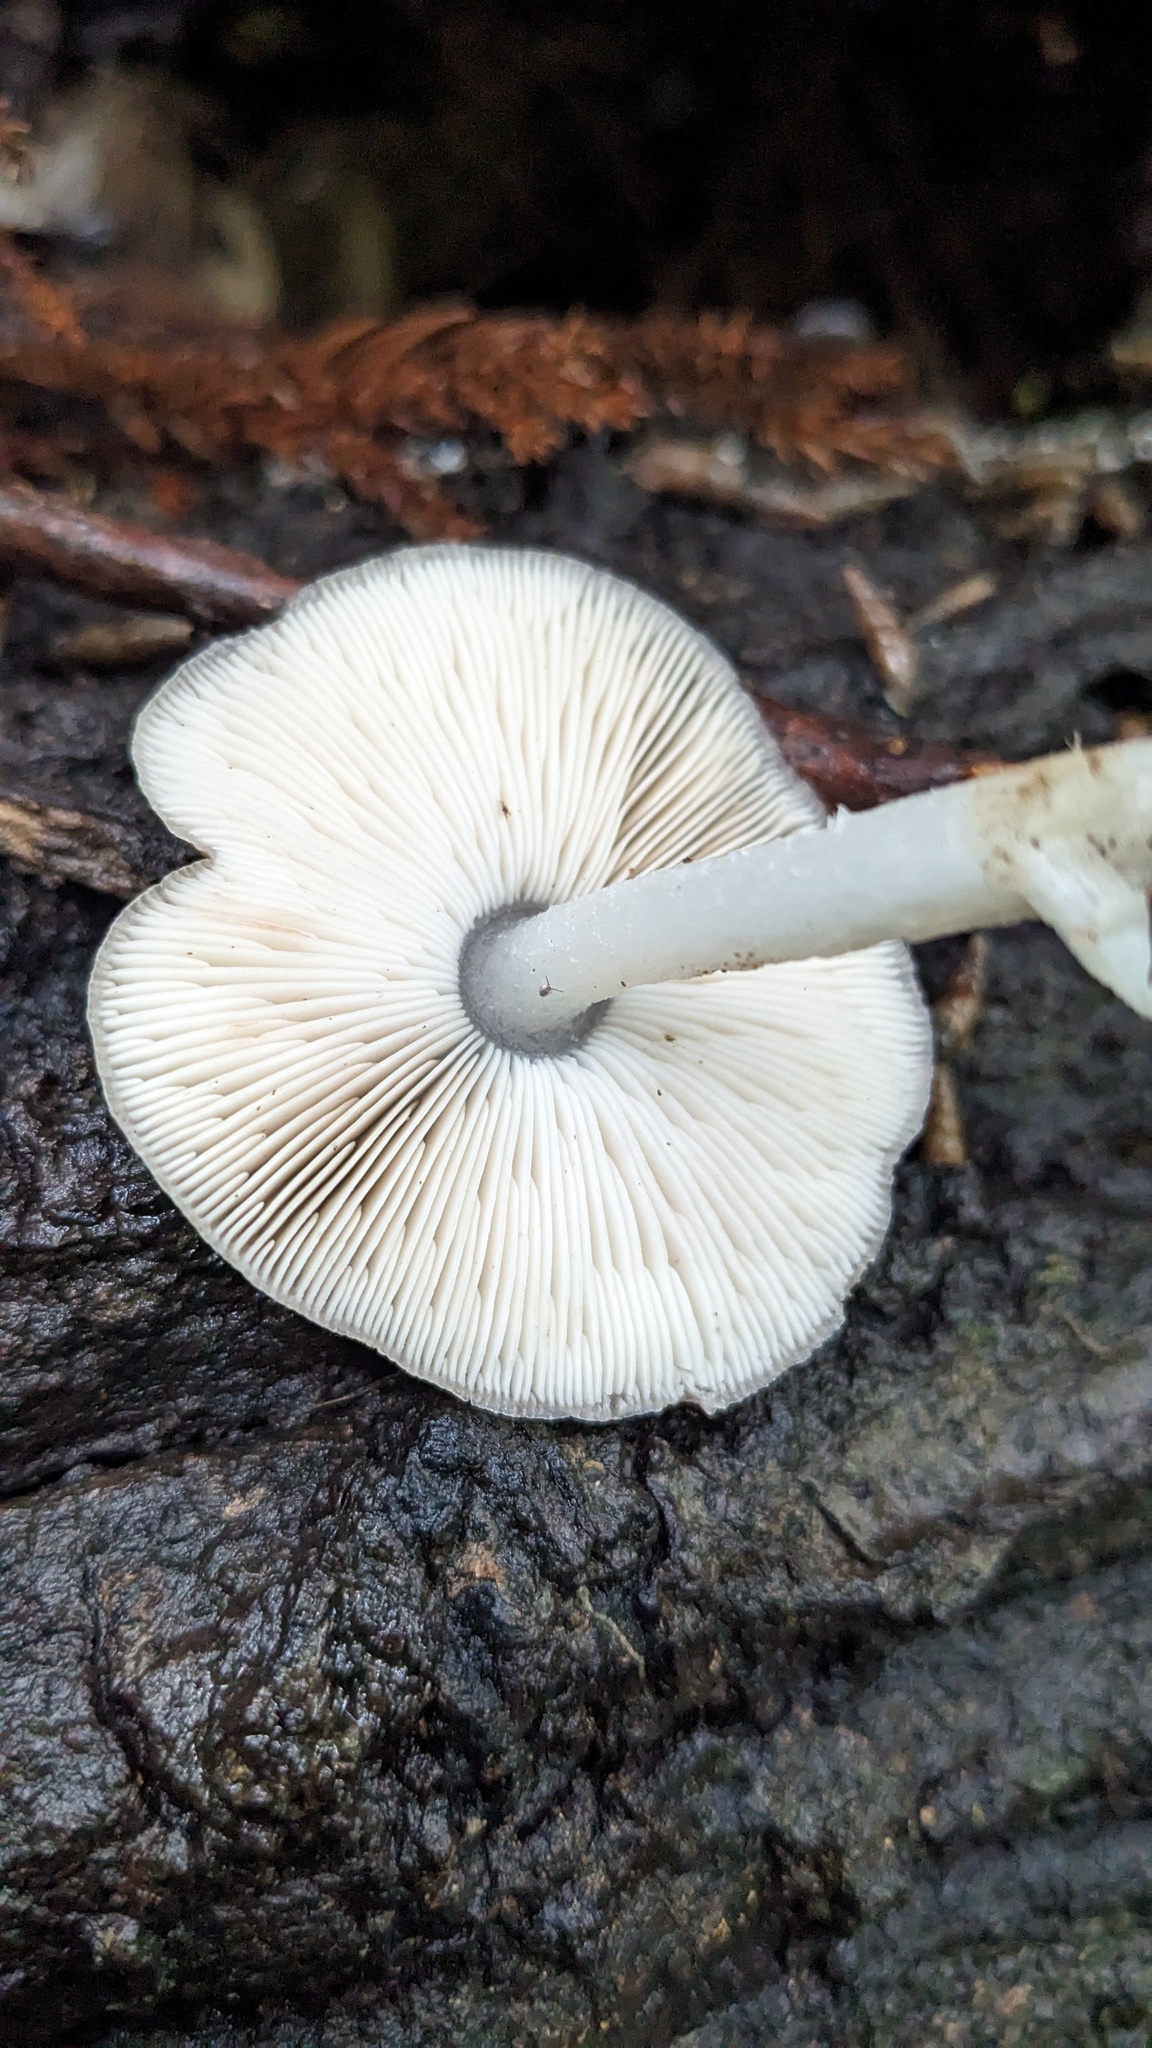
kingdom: Fungi
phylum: Basidiomycota
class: Agaricomycetes
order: Agaricales
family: Pluteaceae
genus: Pluteus
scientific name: Pluteus cervinus
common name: Deer shield
